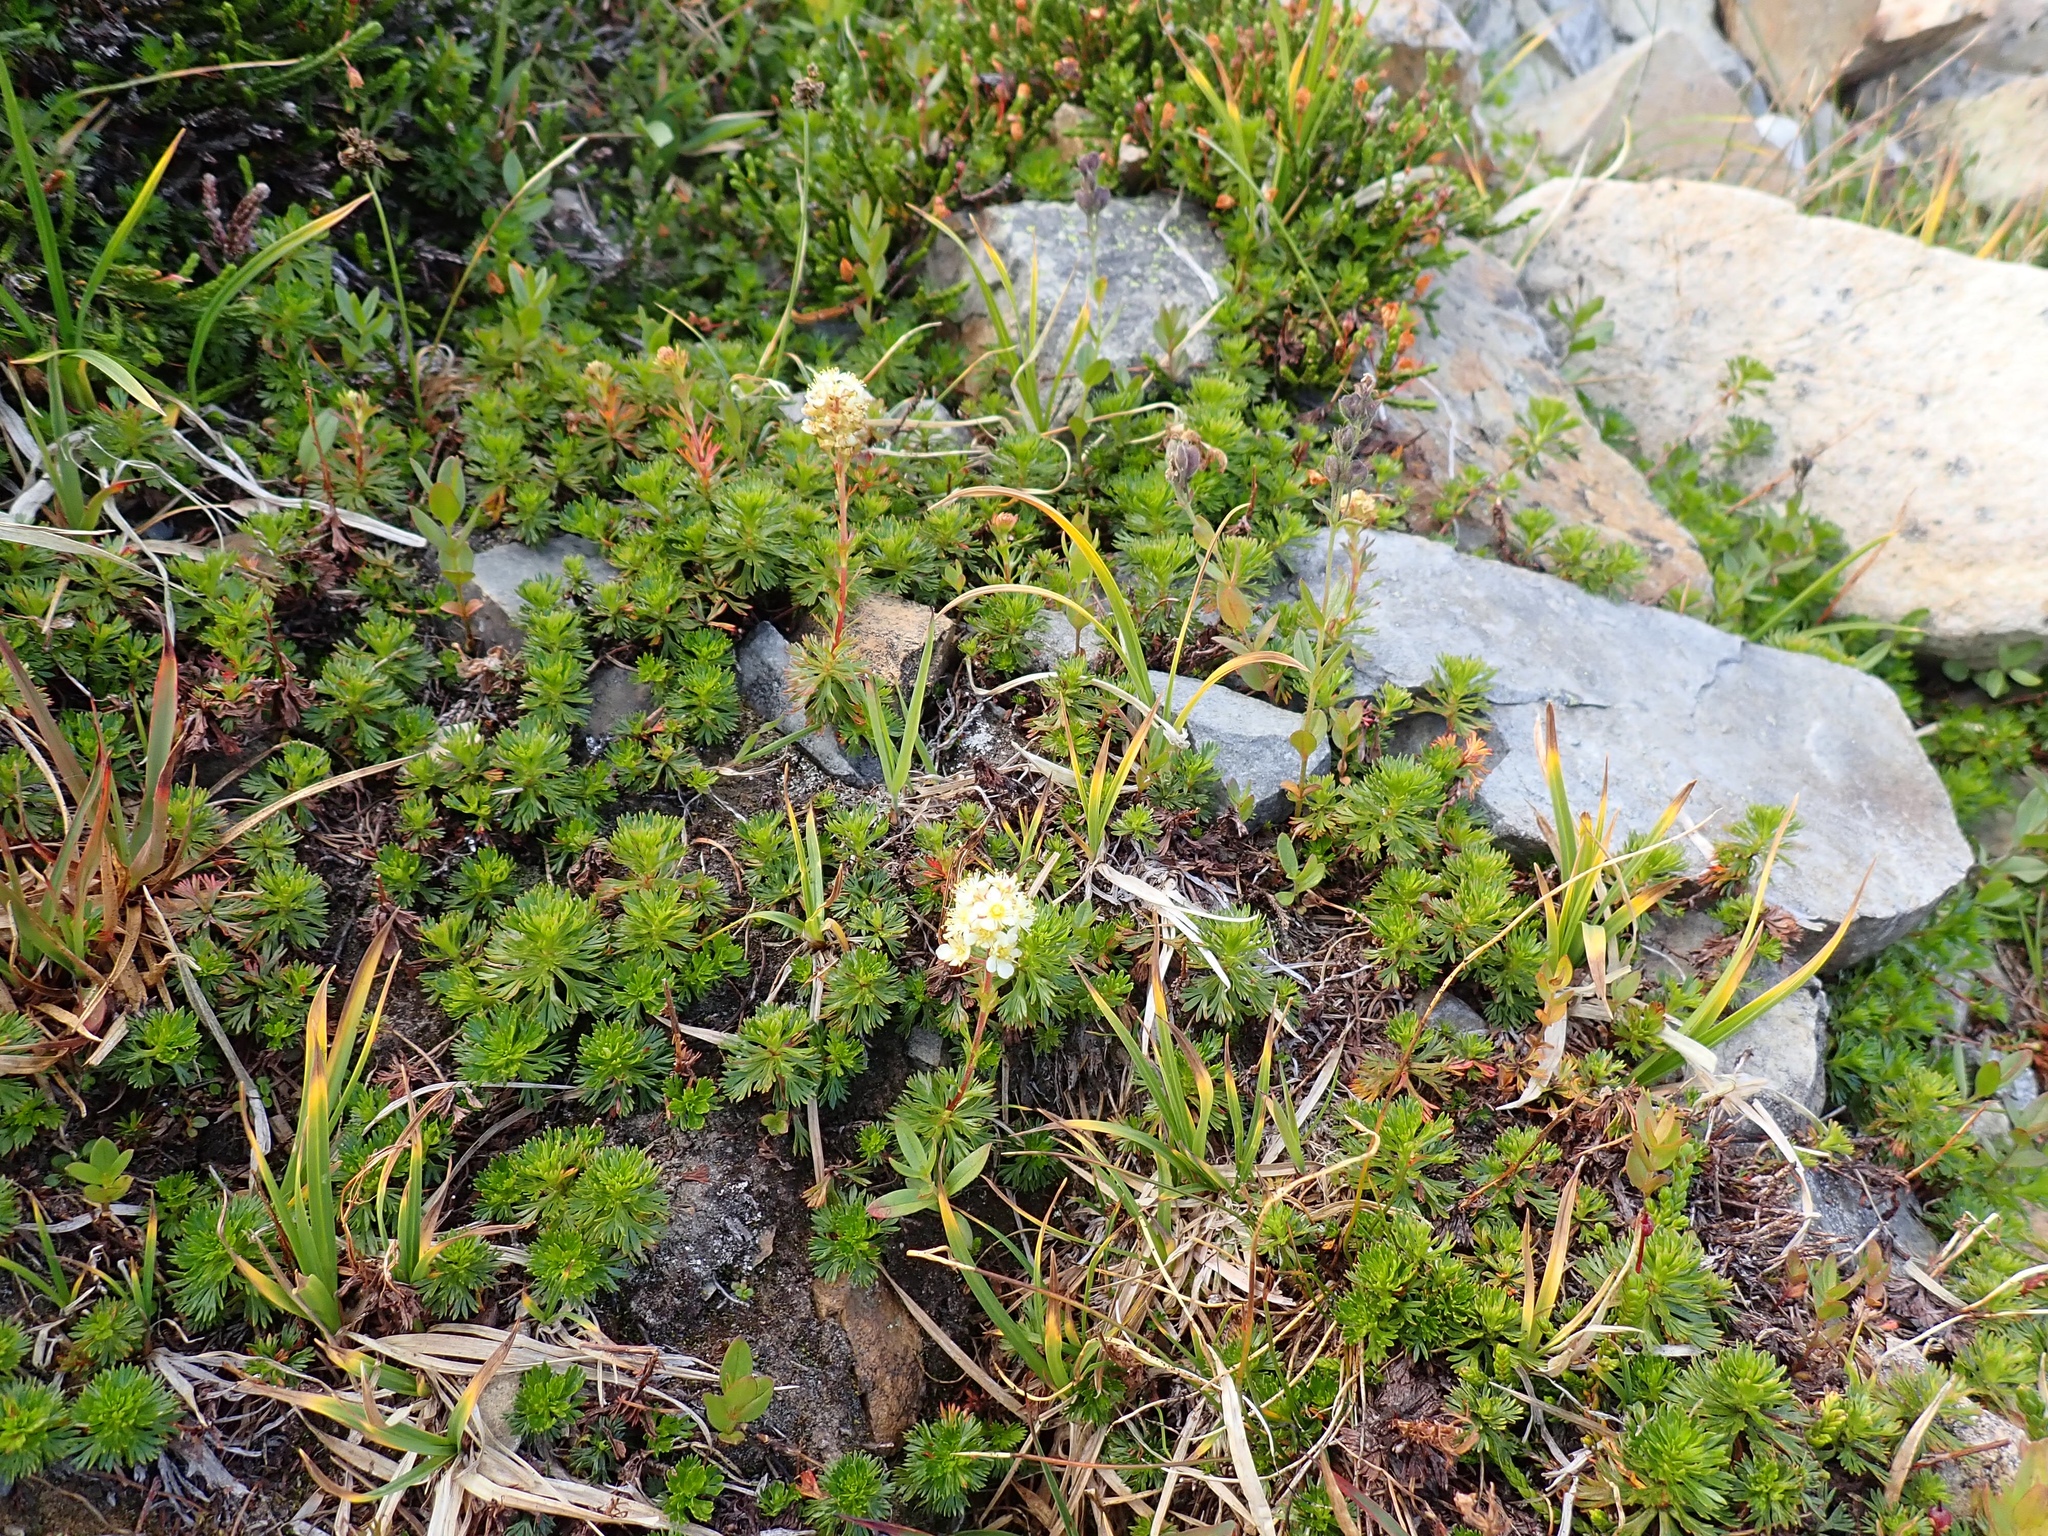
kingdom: Plantae
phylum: Tracheophyta
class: Magnoliopsida
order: Rosales
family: Rosaceae
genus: Luetkea
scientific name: Luetkea pectinata
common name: Partridgefoot
